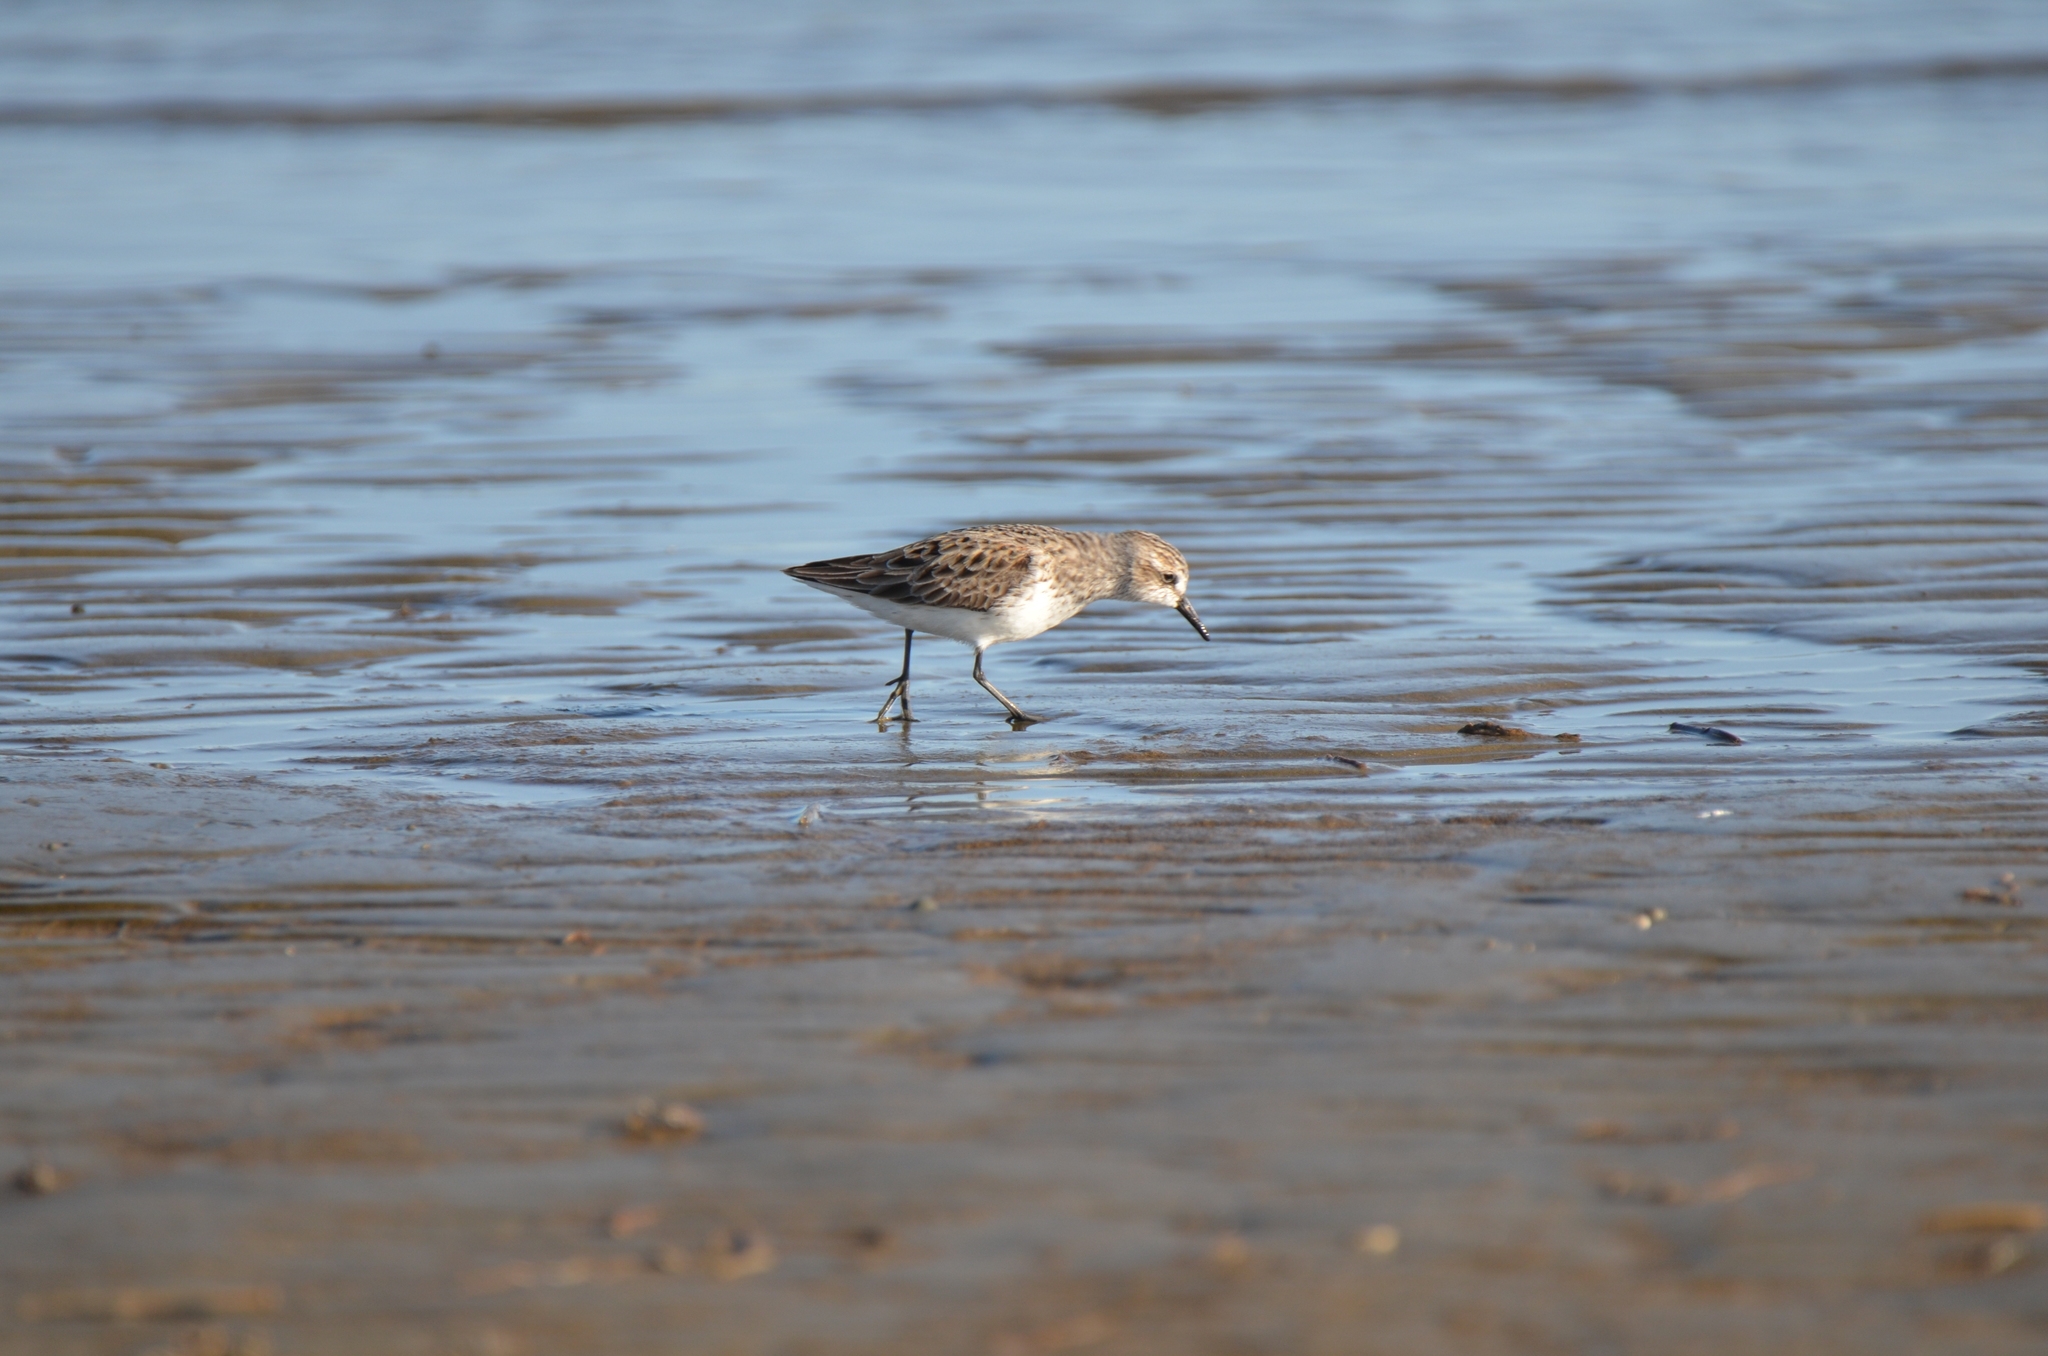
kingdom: Animalia
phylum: Chordata
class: Aves
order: Charadriiformes
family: Scolopacidae
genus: Calidris
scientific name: Calidris pusilla
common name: Semipalmated sandpiper
